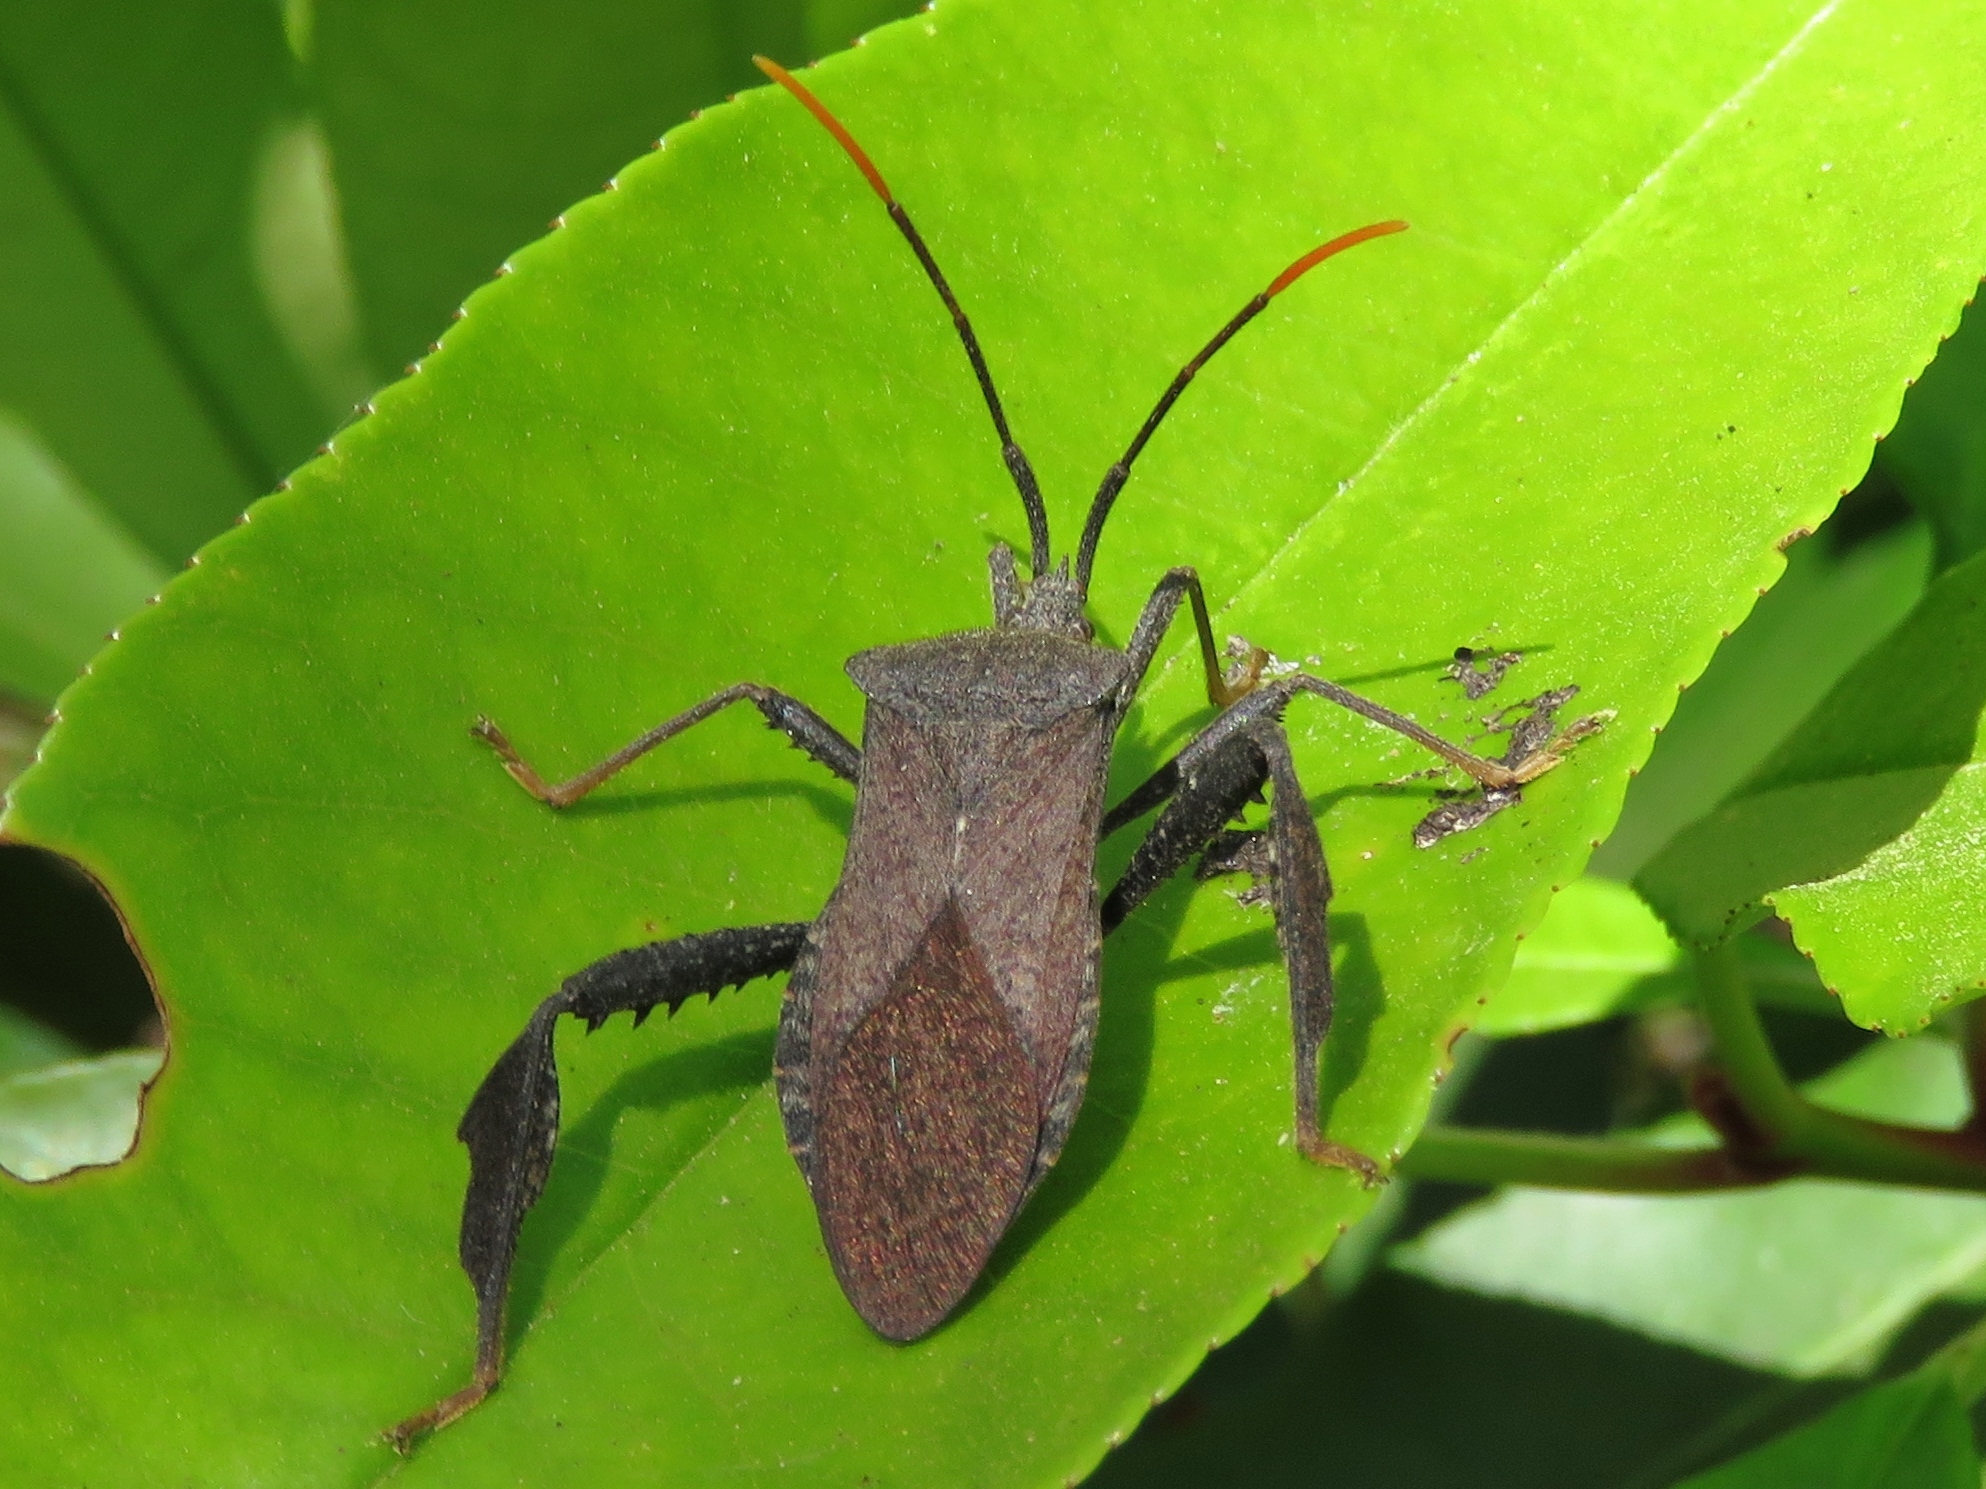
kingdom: Animalia
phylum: Arthropoda
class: Insecta
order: Hemiptera
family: Coreidae
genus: Acanthocephala
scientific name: Acanthocephala terminalis
